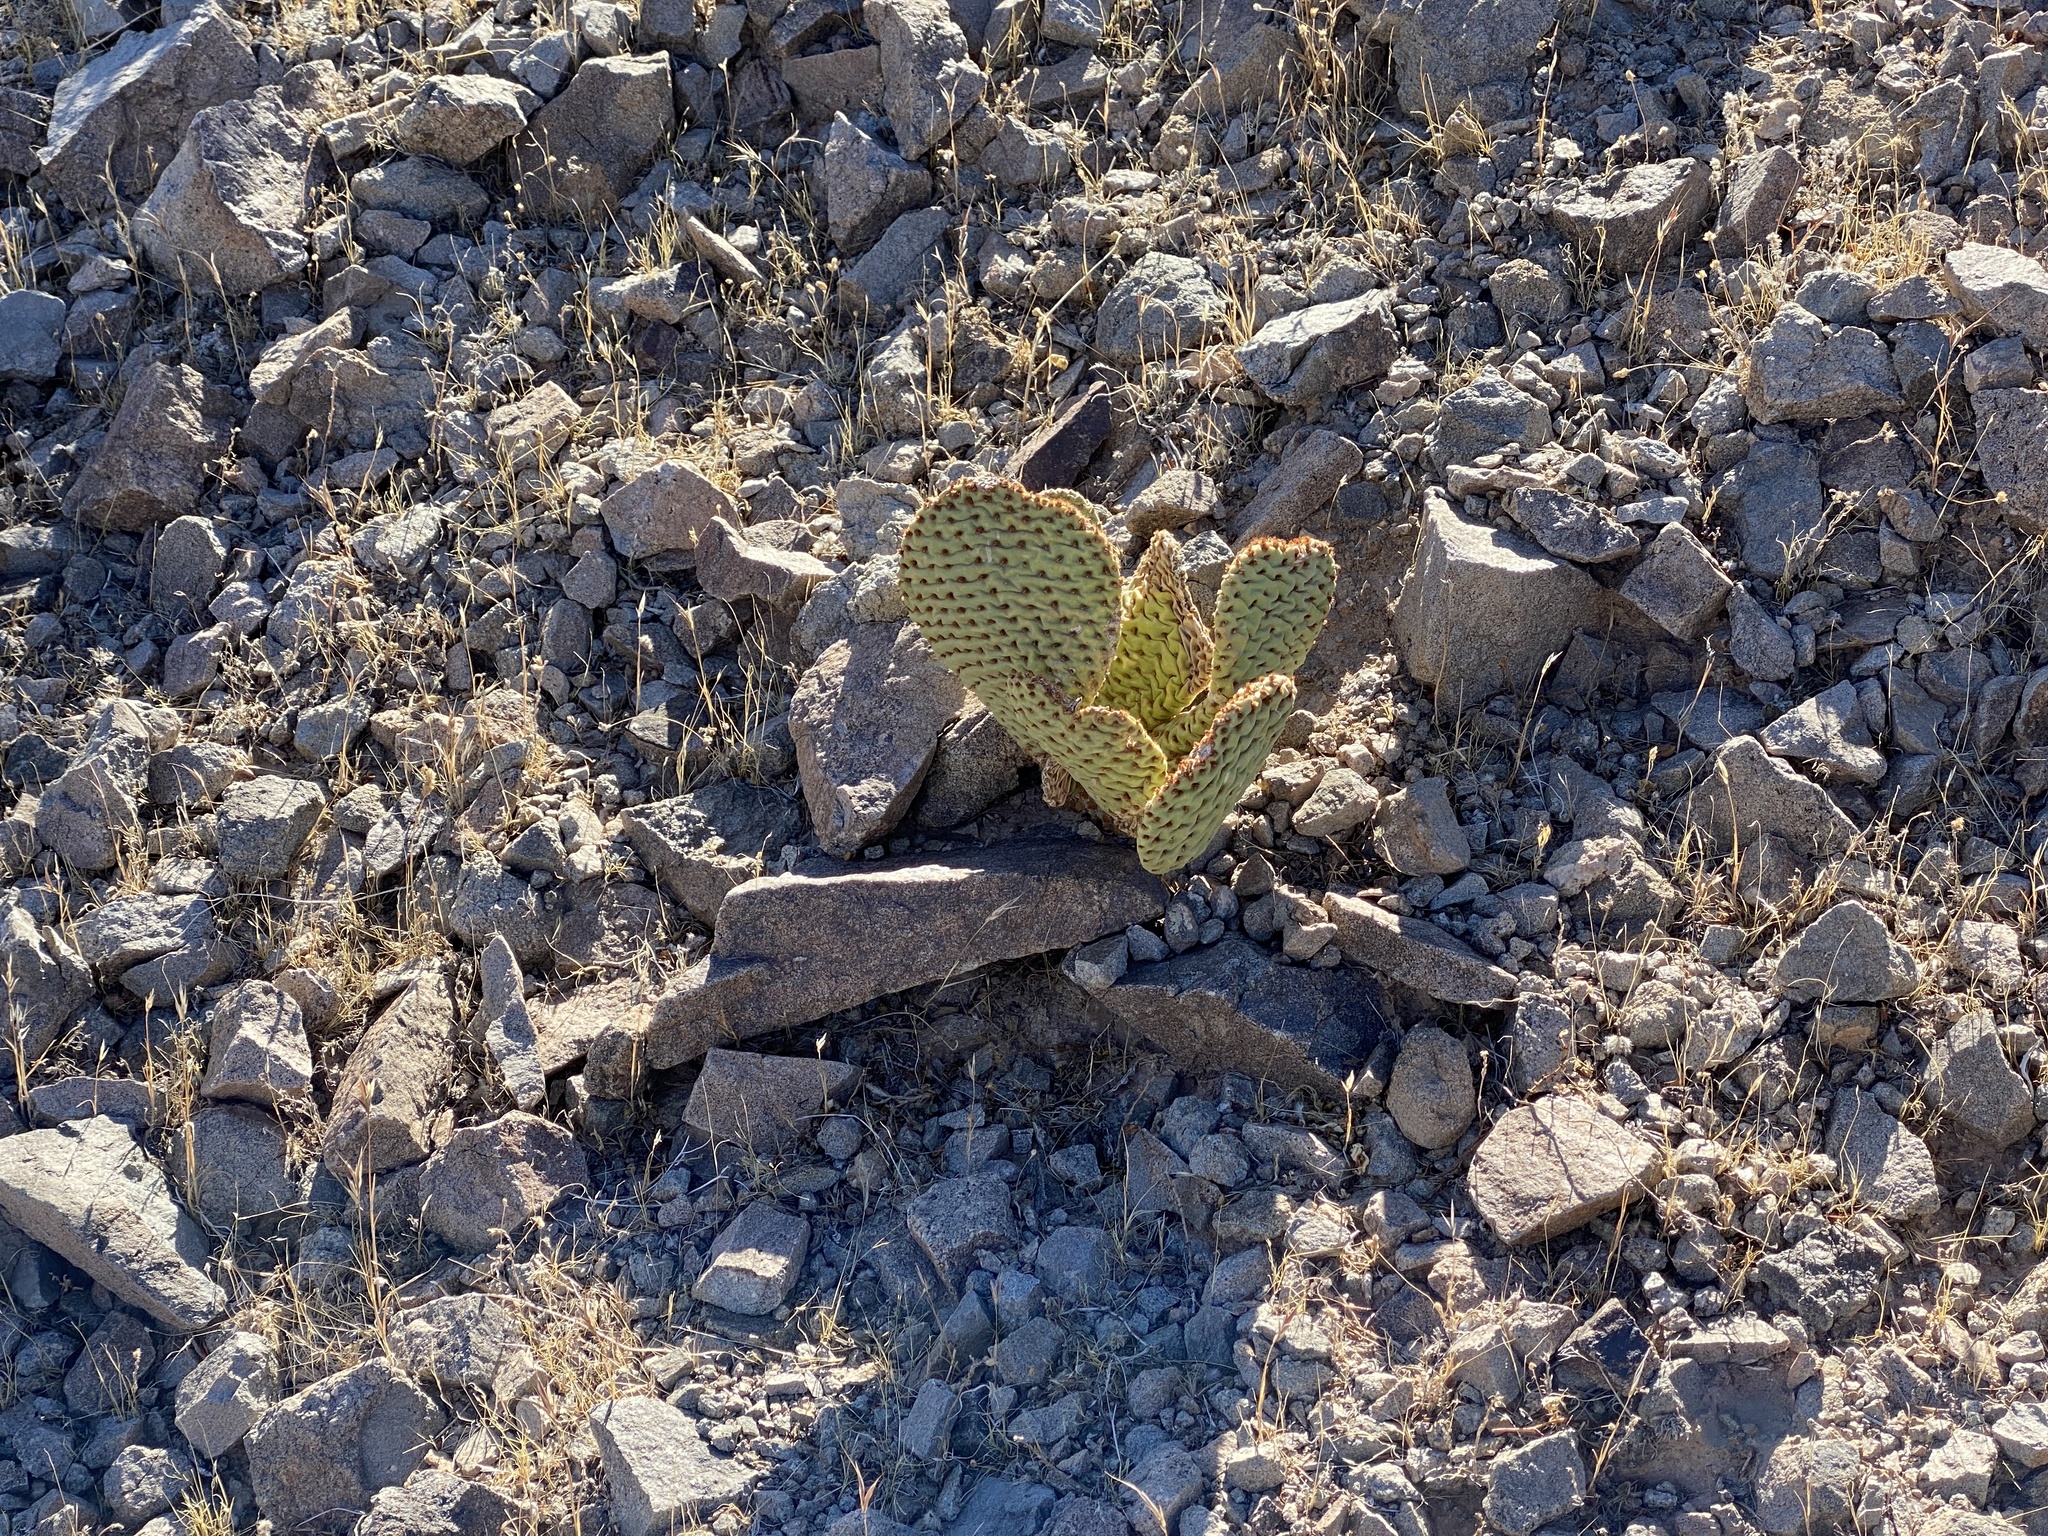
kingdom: Plantae
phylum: Tracheophyta
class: Magnoliopsida
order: Caryophyllales
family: Cactaceae
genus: Opuntia
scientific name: Opuntia basilaris
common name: Beavertail prickly-pear
